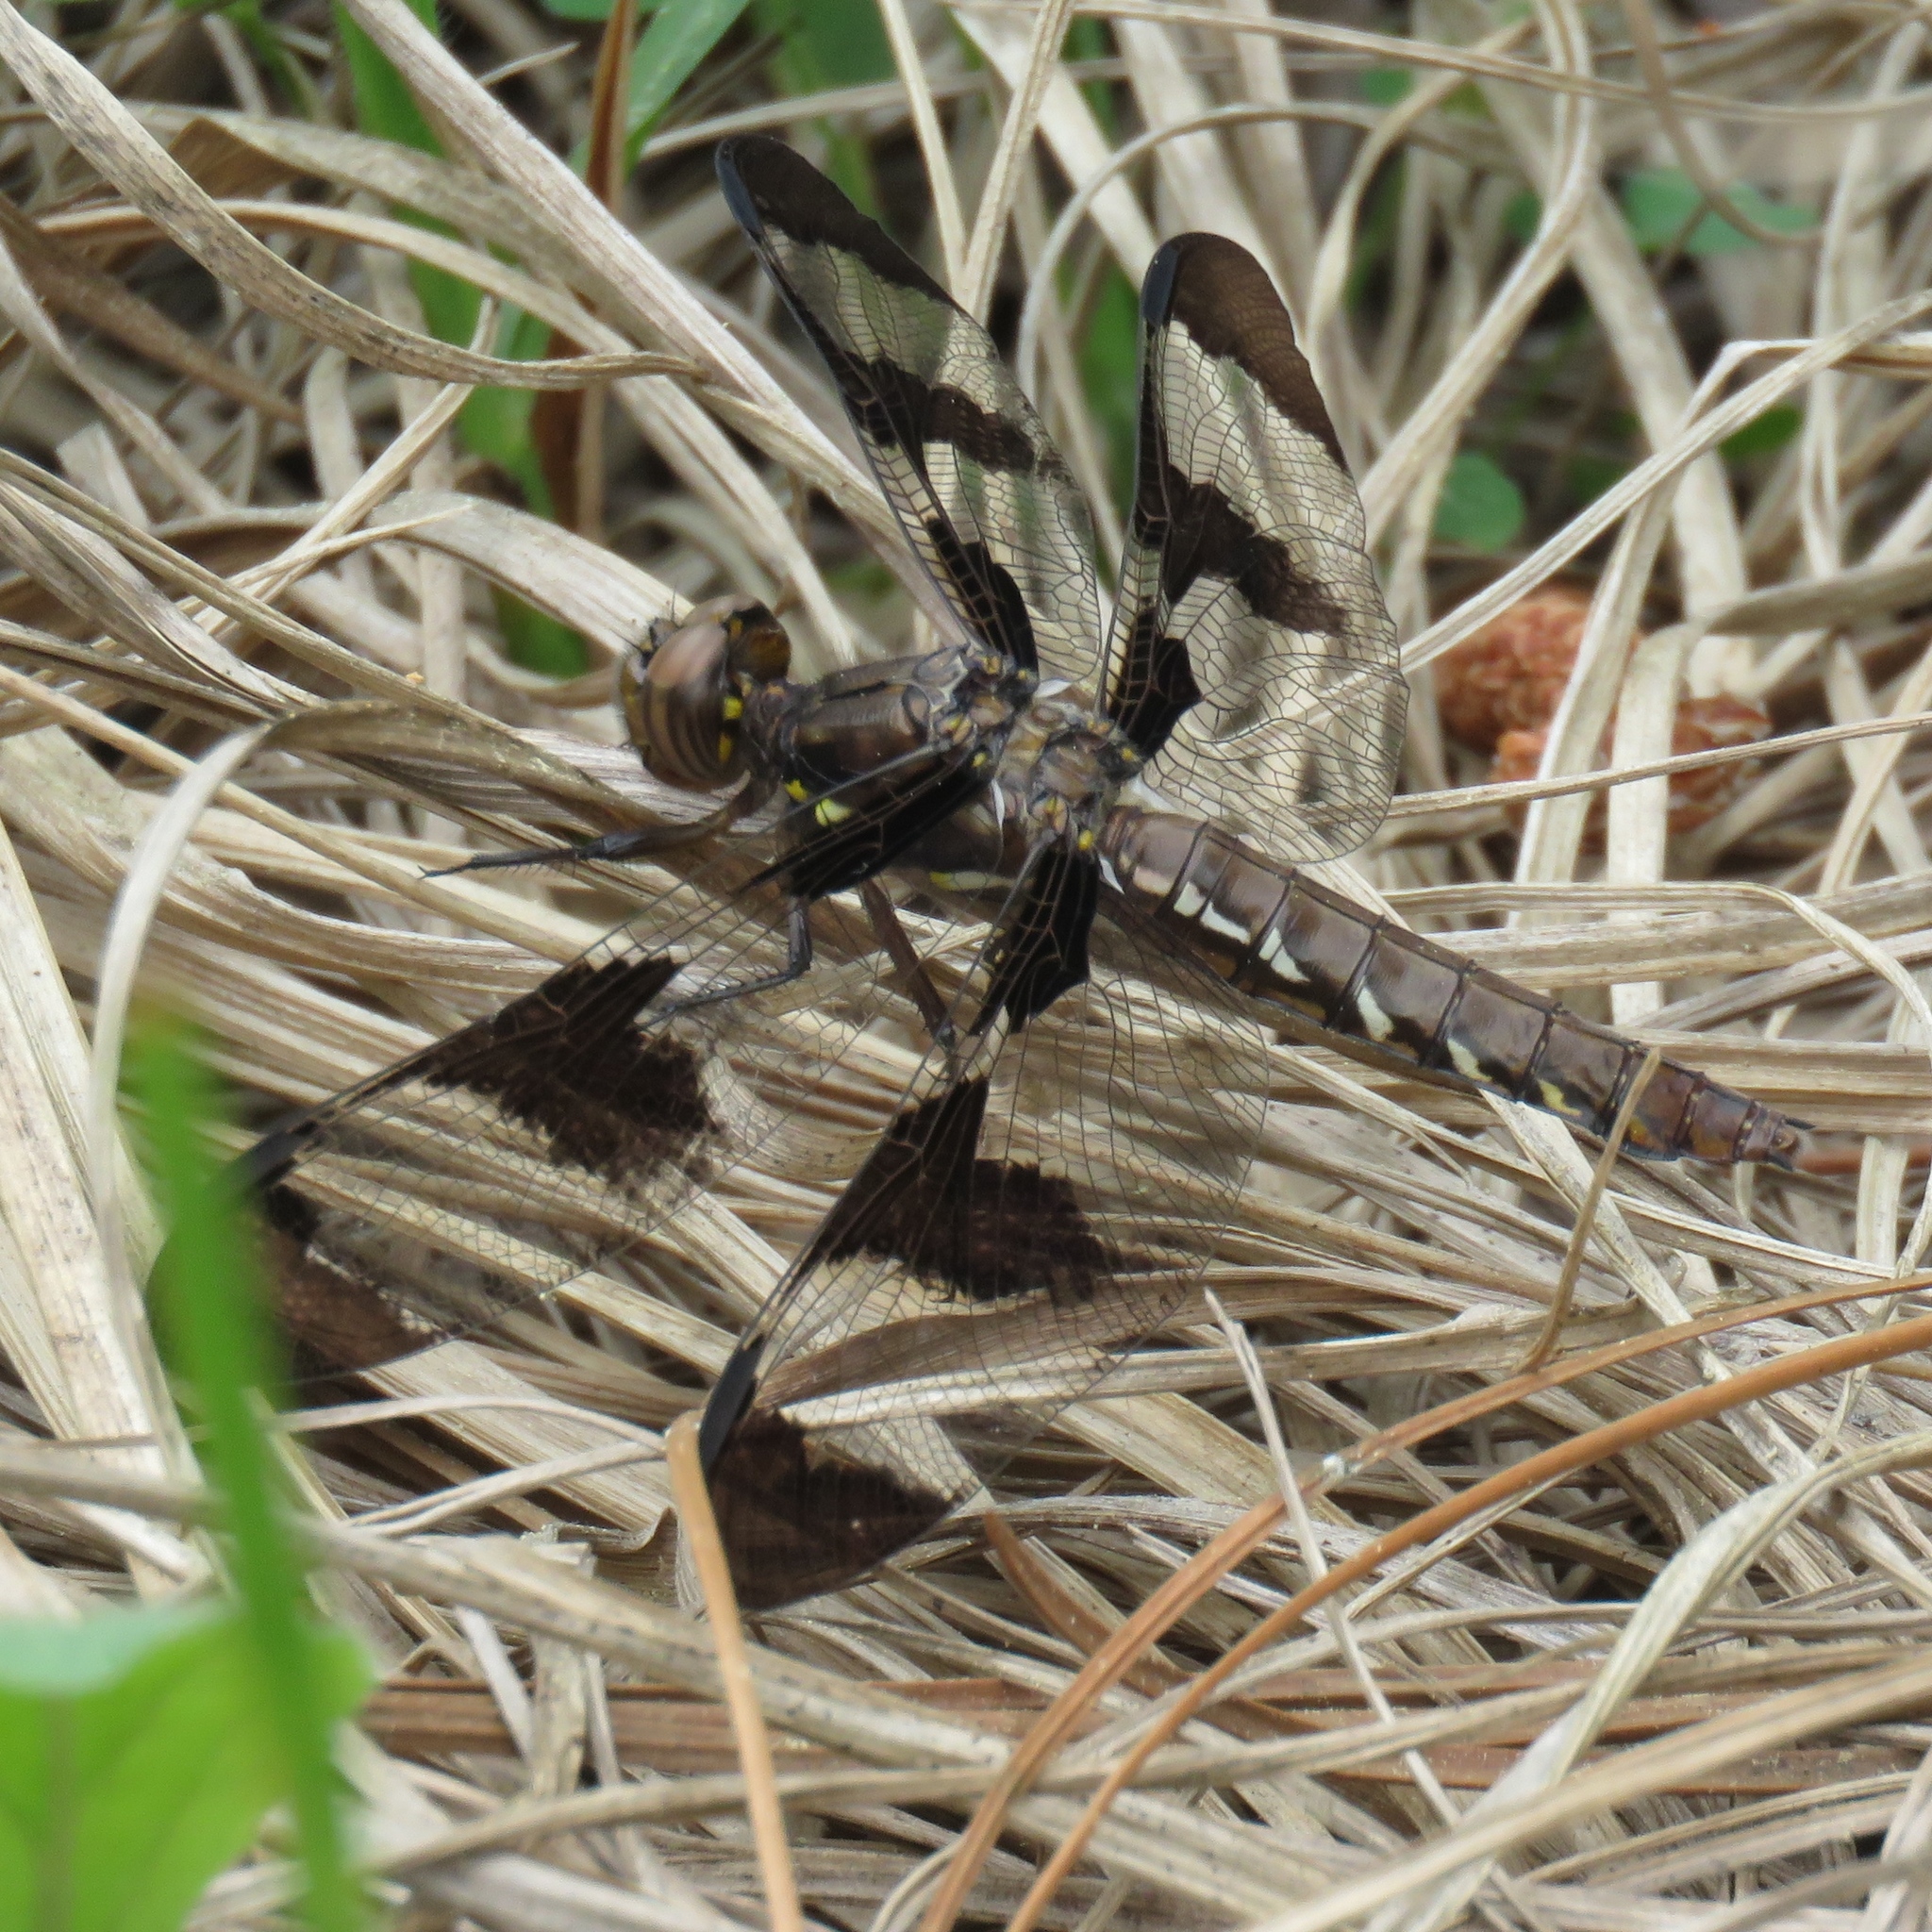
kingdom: Animalia
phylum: Arthropoda
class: Insecta
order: Odonata
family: Libellulidae
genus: Plathemis
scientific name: Plathemis lydia
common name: Common whitetail
